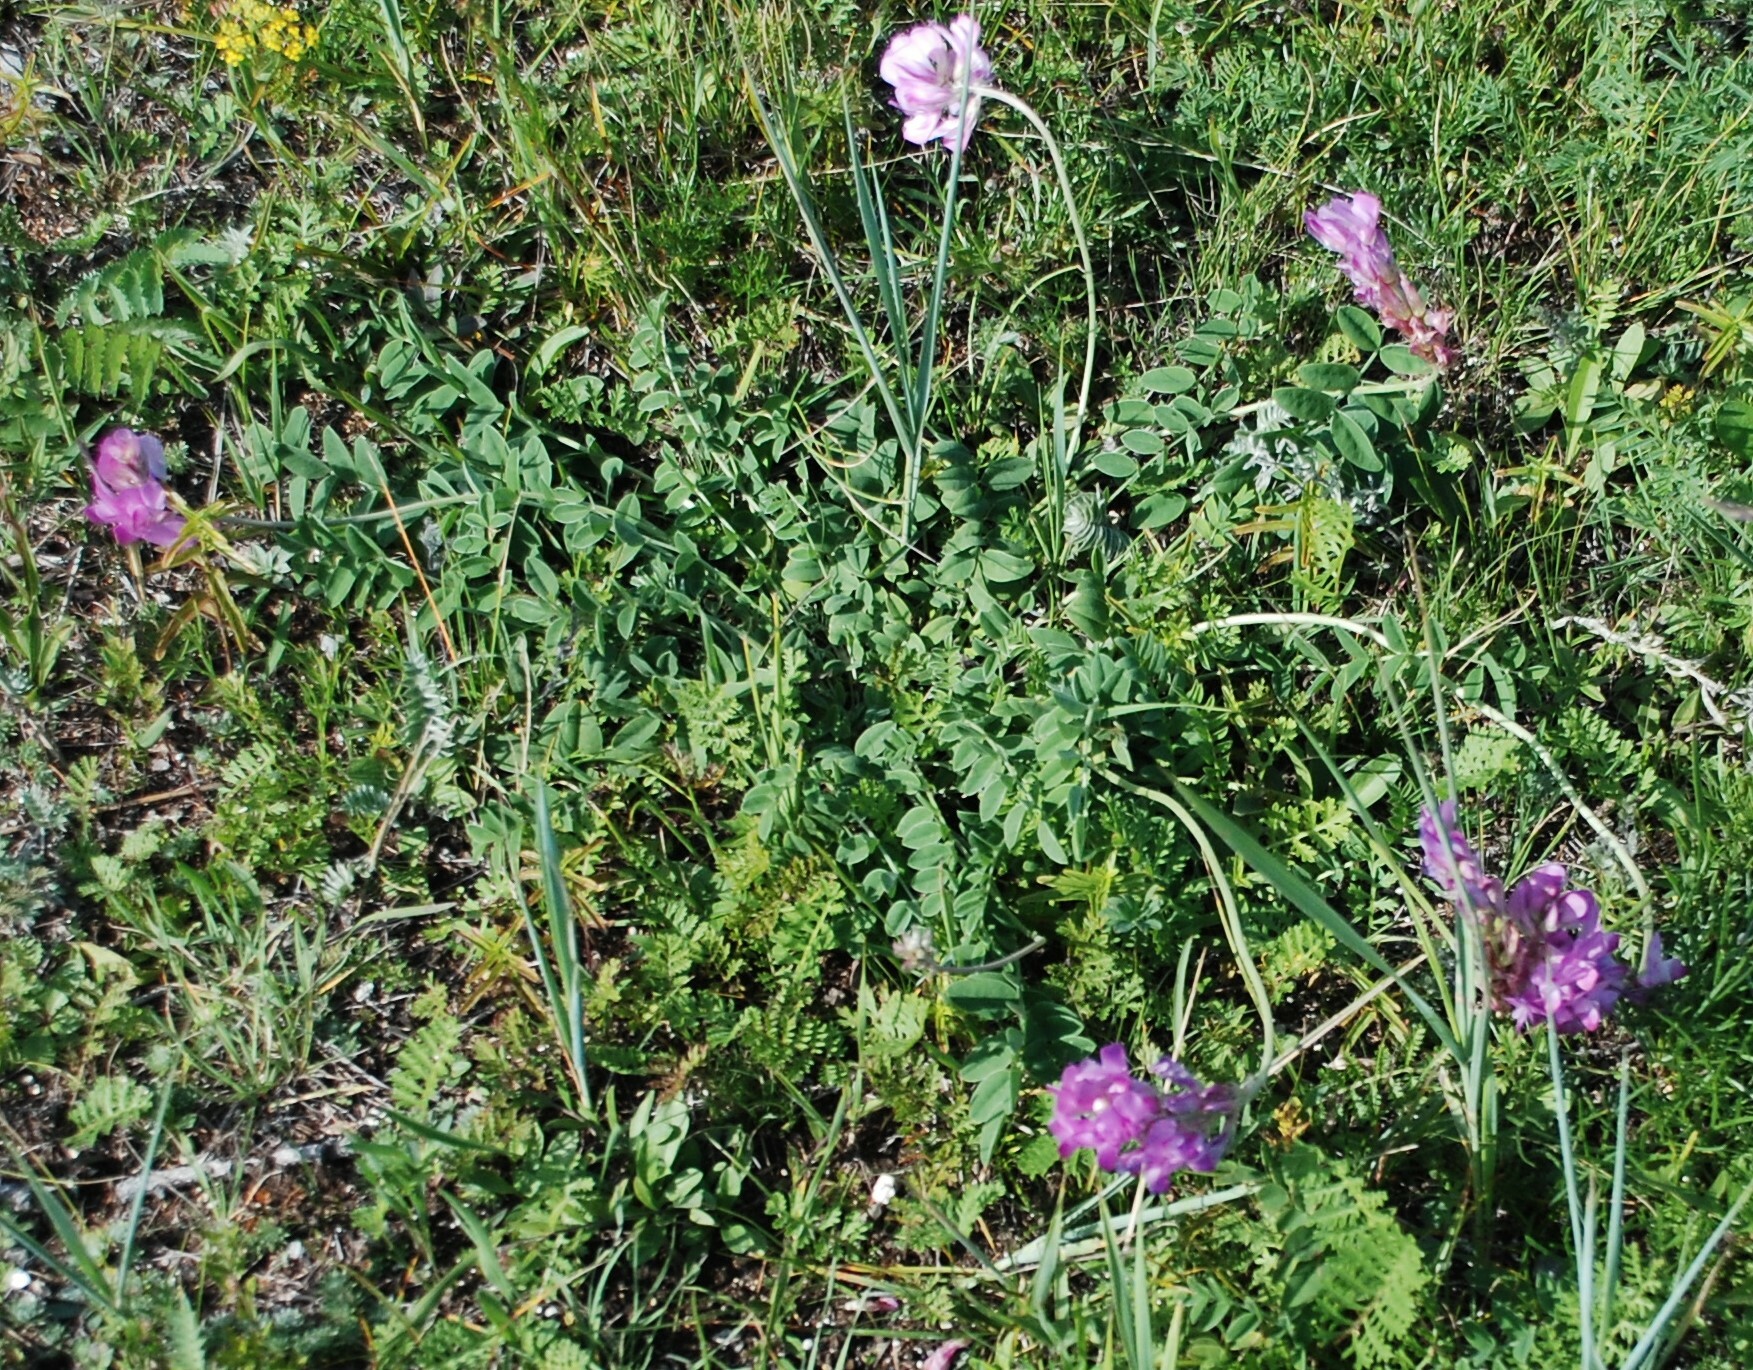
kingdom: Plantae
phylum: Tracheophyta
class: Magnoliopsida
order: Fabales
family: Fabaceae
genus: Hedysarum
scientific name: Hedysarum gmelinii
